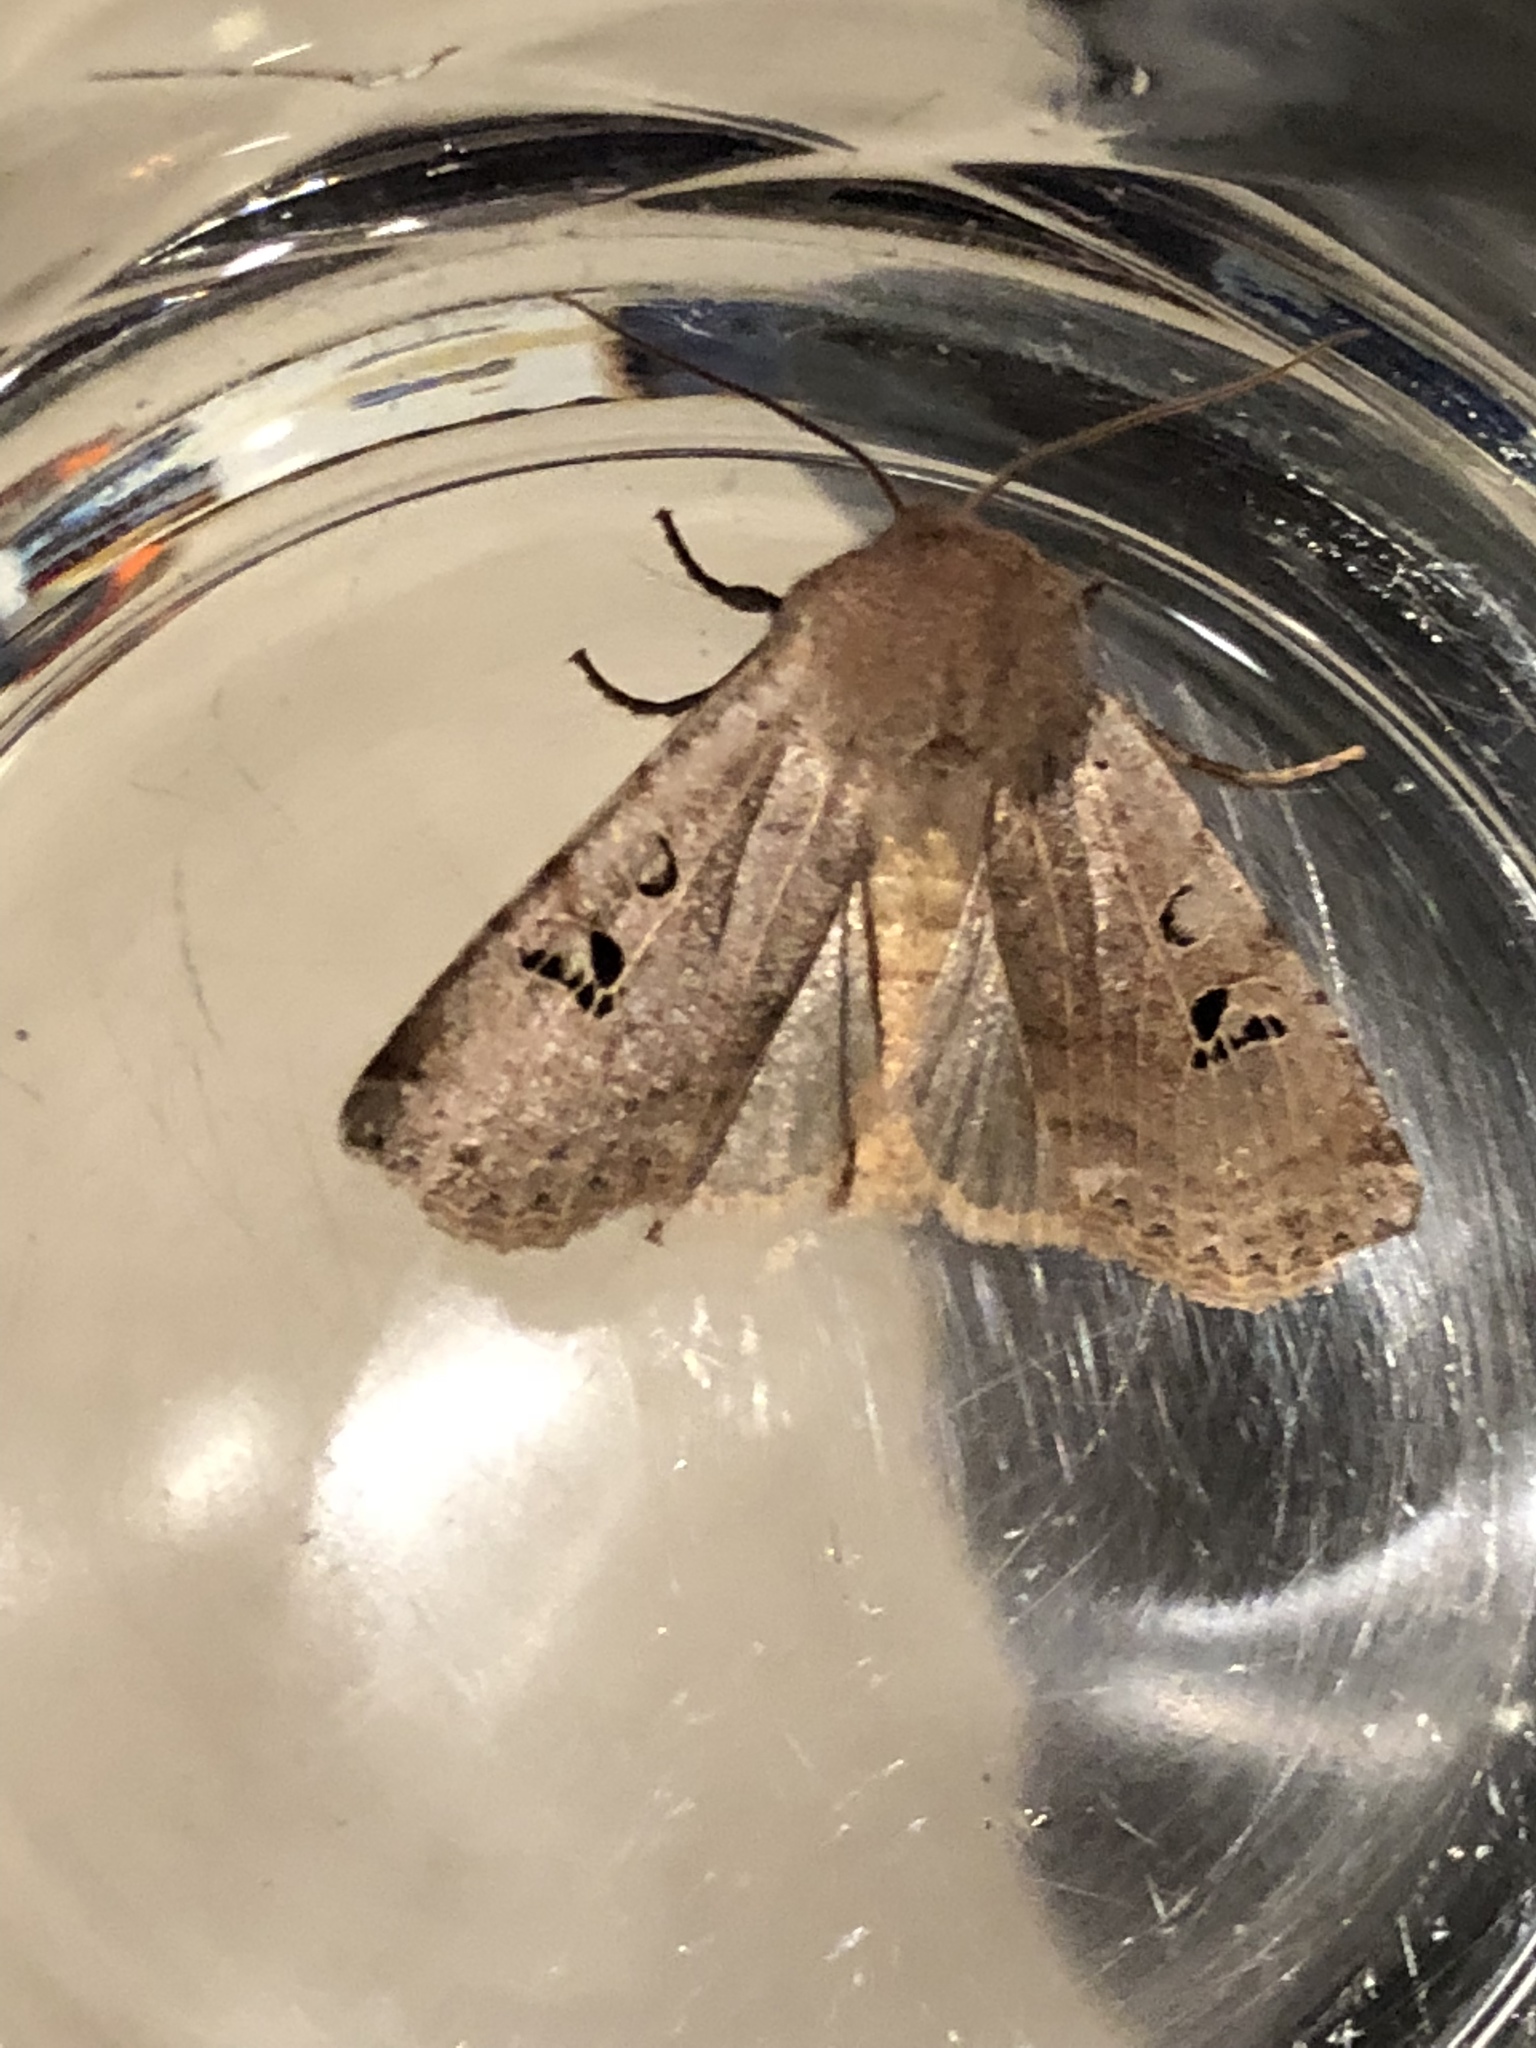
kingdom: Animalia
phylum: Arthropoda
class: Insecta
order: Lepidoptera
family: Noctuidae
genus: Conistra
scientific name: Conistra rubiginosa
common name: Black-spotted chestnut
